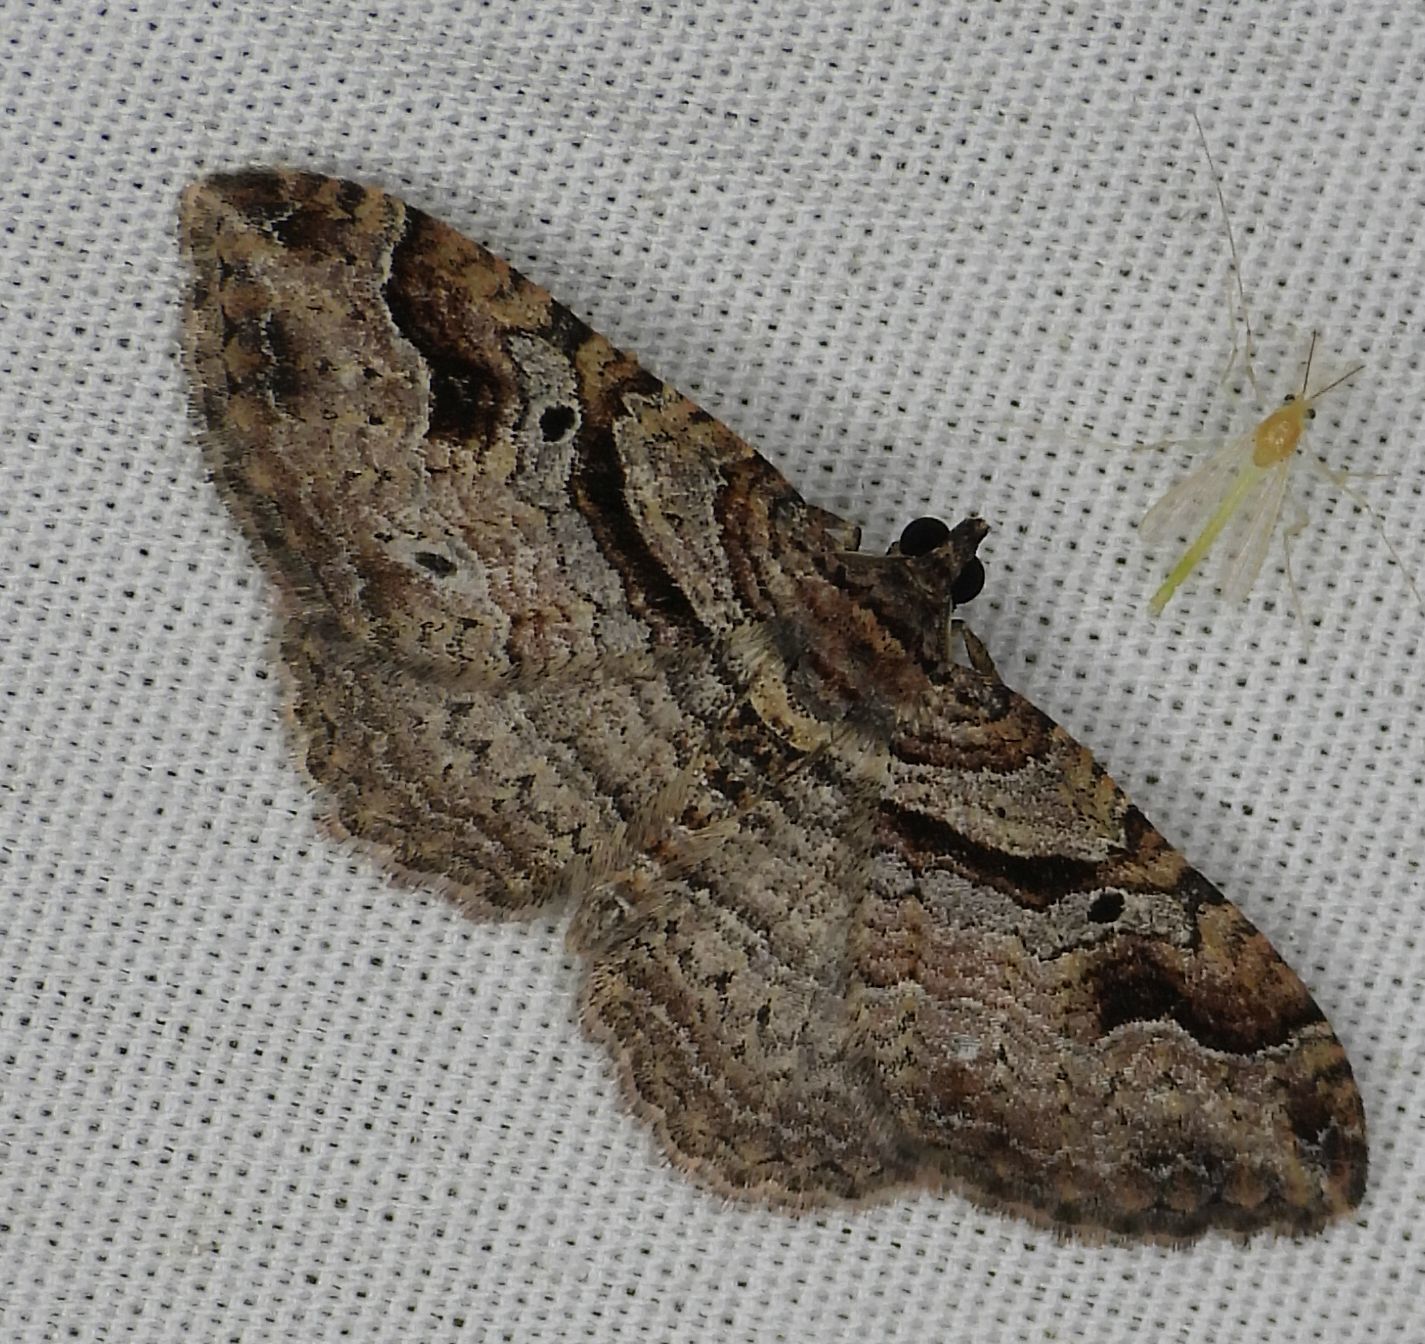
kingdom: Animalia
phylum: Arthropoda
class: Insecta
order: Lepidoptera
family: Geometridae
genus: Costaconvexa
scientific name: Costaconvexa centrostrigaria
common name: Bent-line carpet
